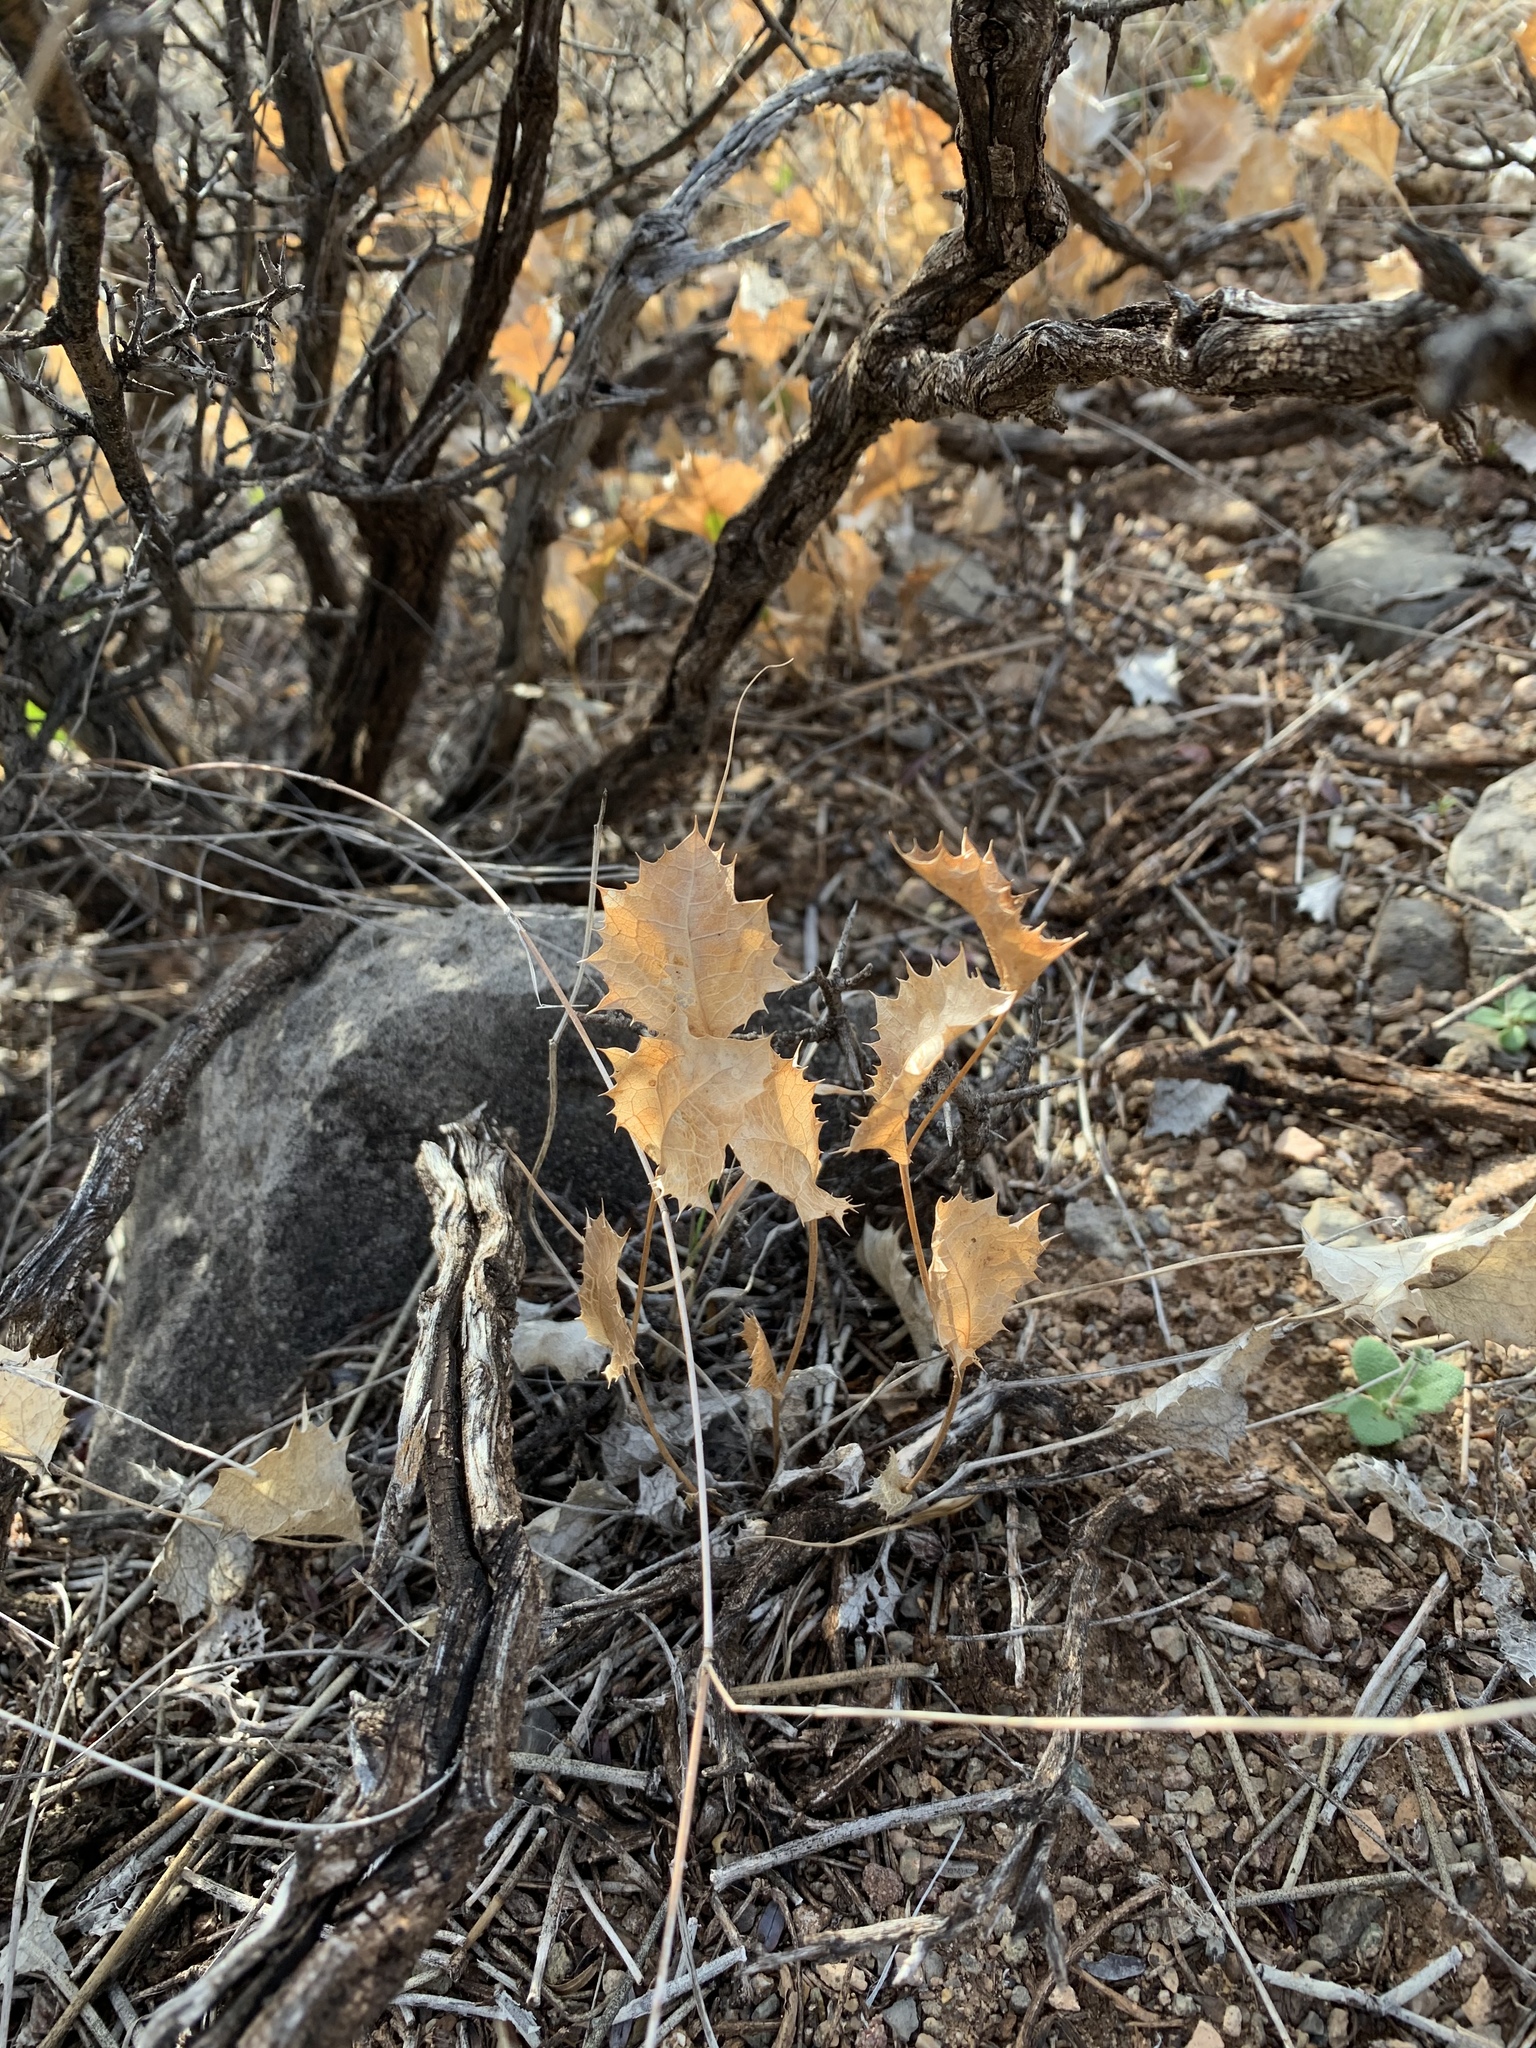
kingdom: Plantae
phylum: Tracheophyta
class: Magnoliopsida
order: Asterales
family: Asteraceae
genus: Acourtia
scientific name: Acourtia nana
